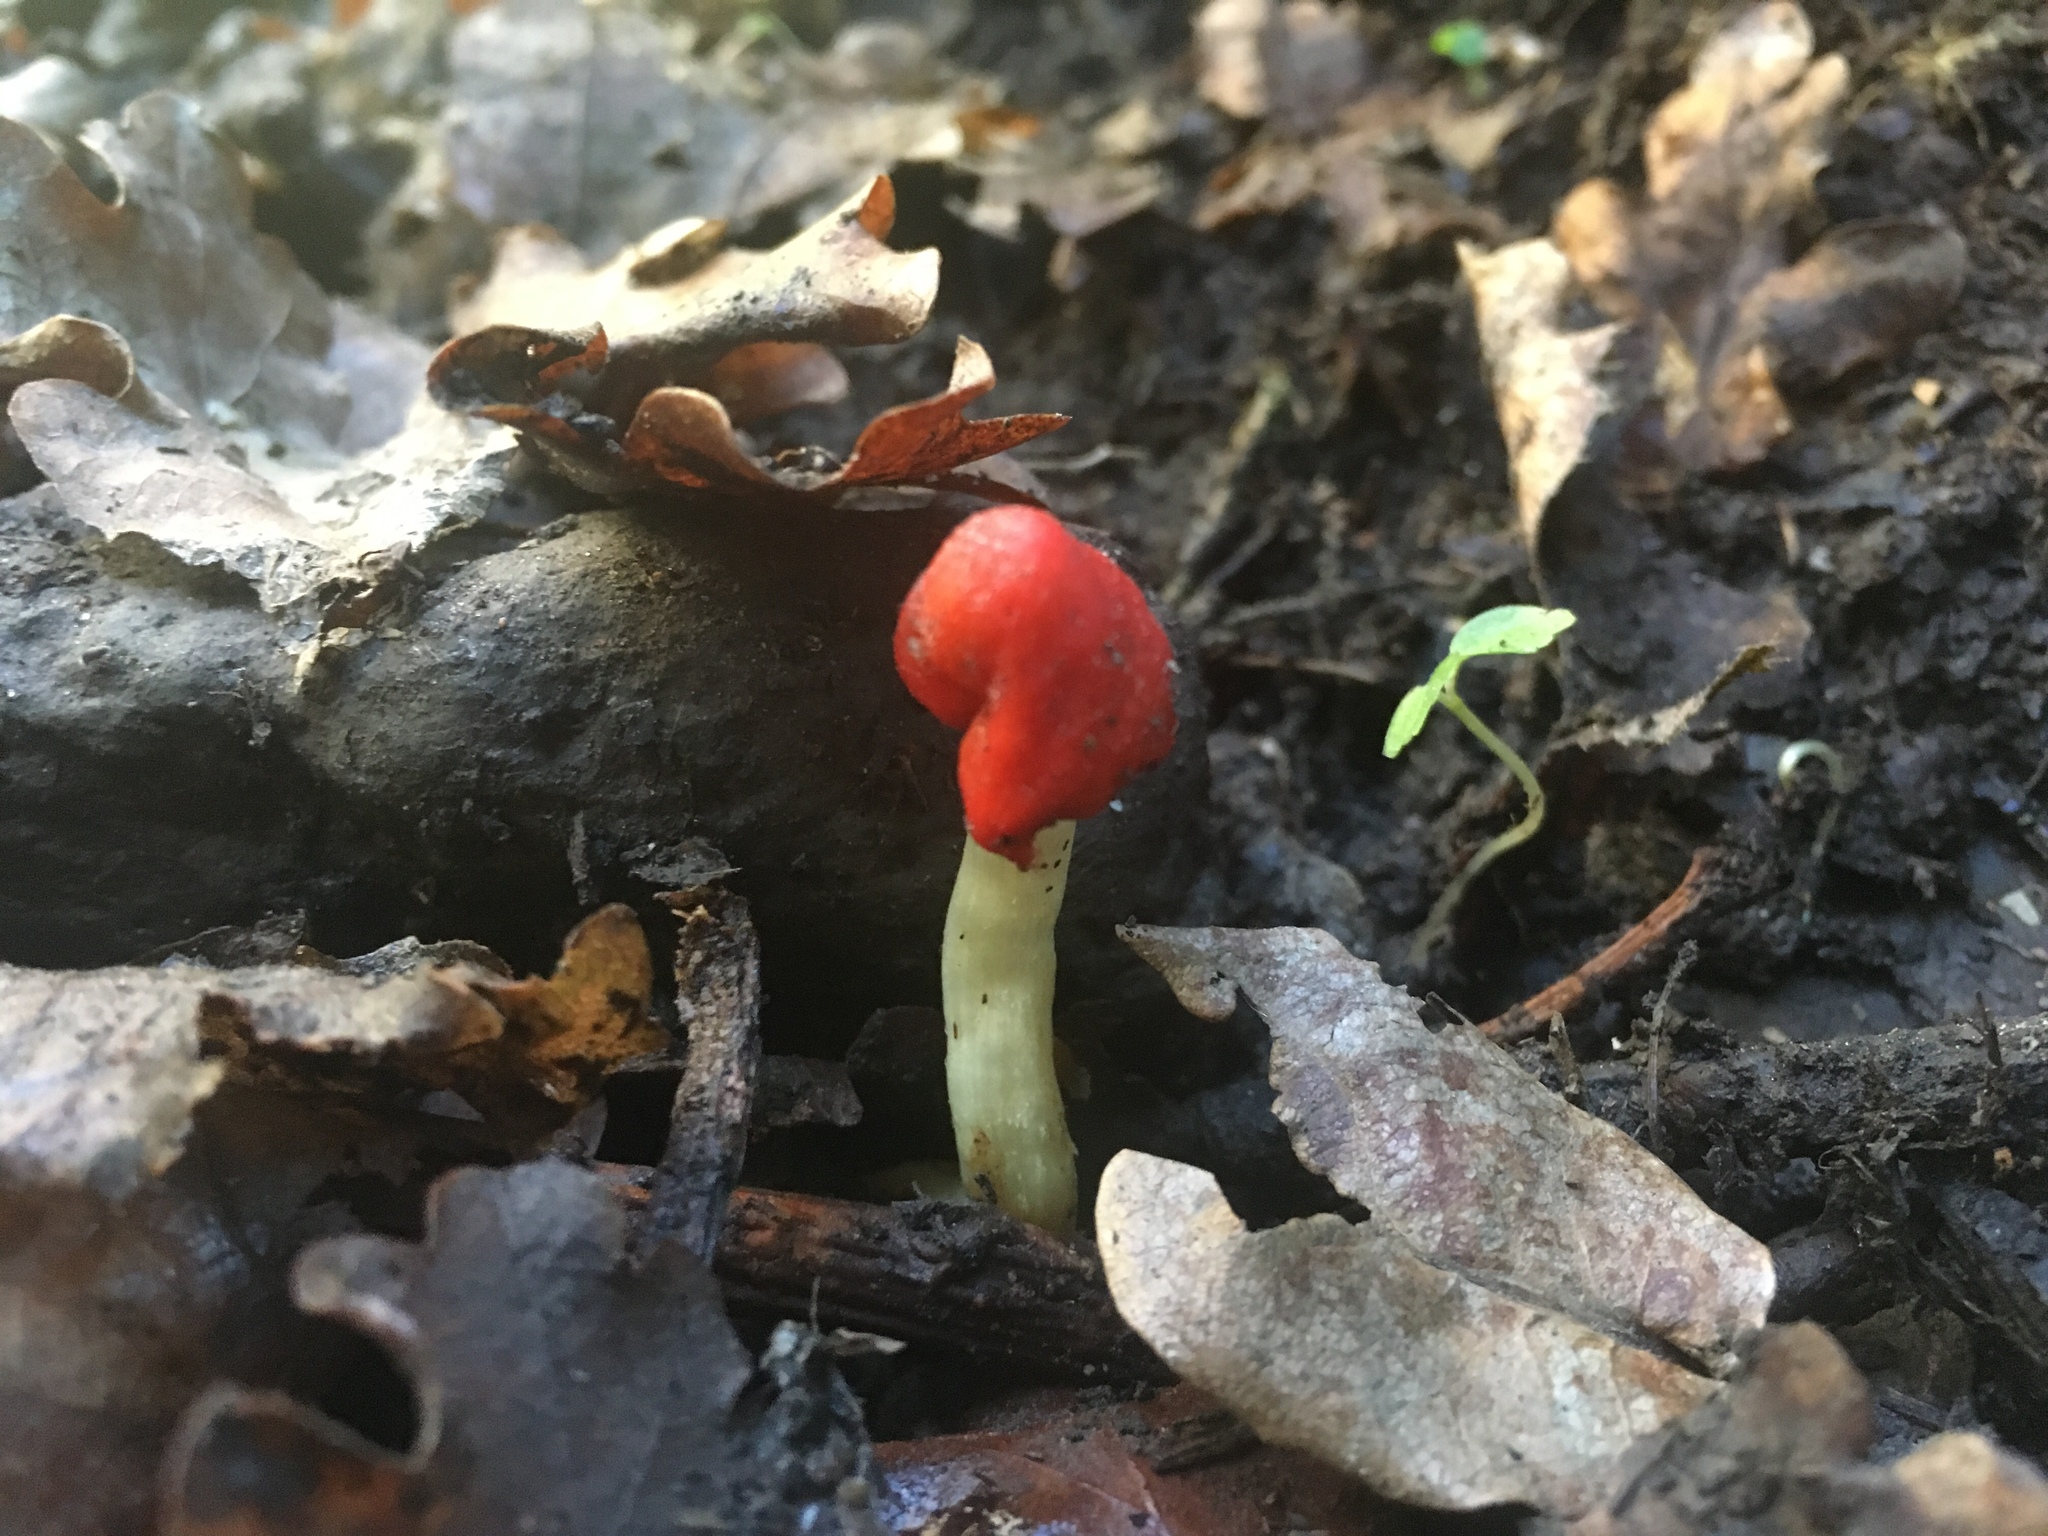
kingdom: Fungi
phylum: Basidiomycota
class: Agaricomycetes
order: Agaricales
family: Strophariaceae
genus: Leratiomyces
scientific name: Leratiomyces erythrocephalus
